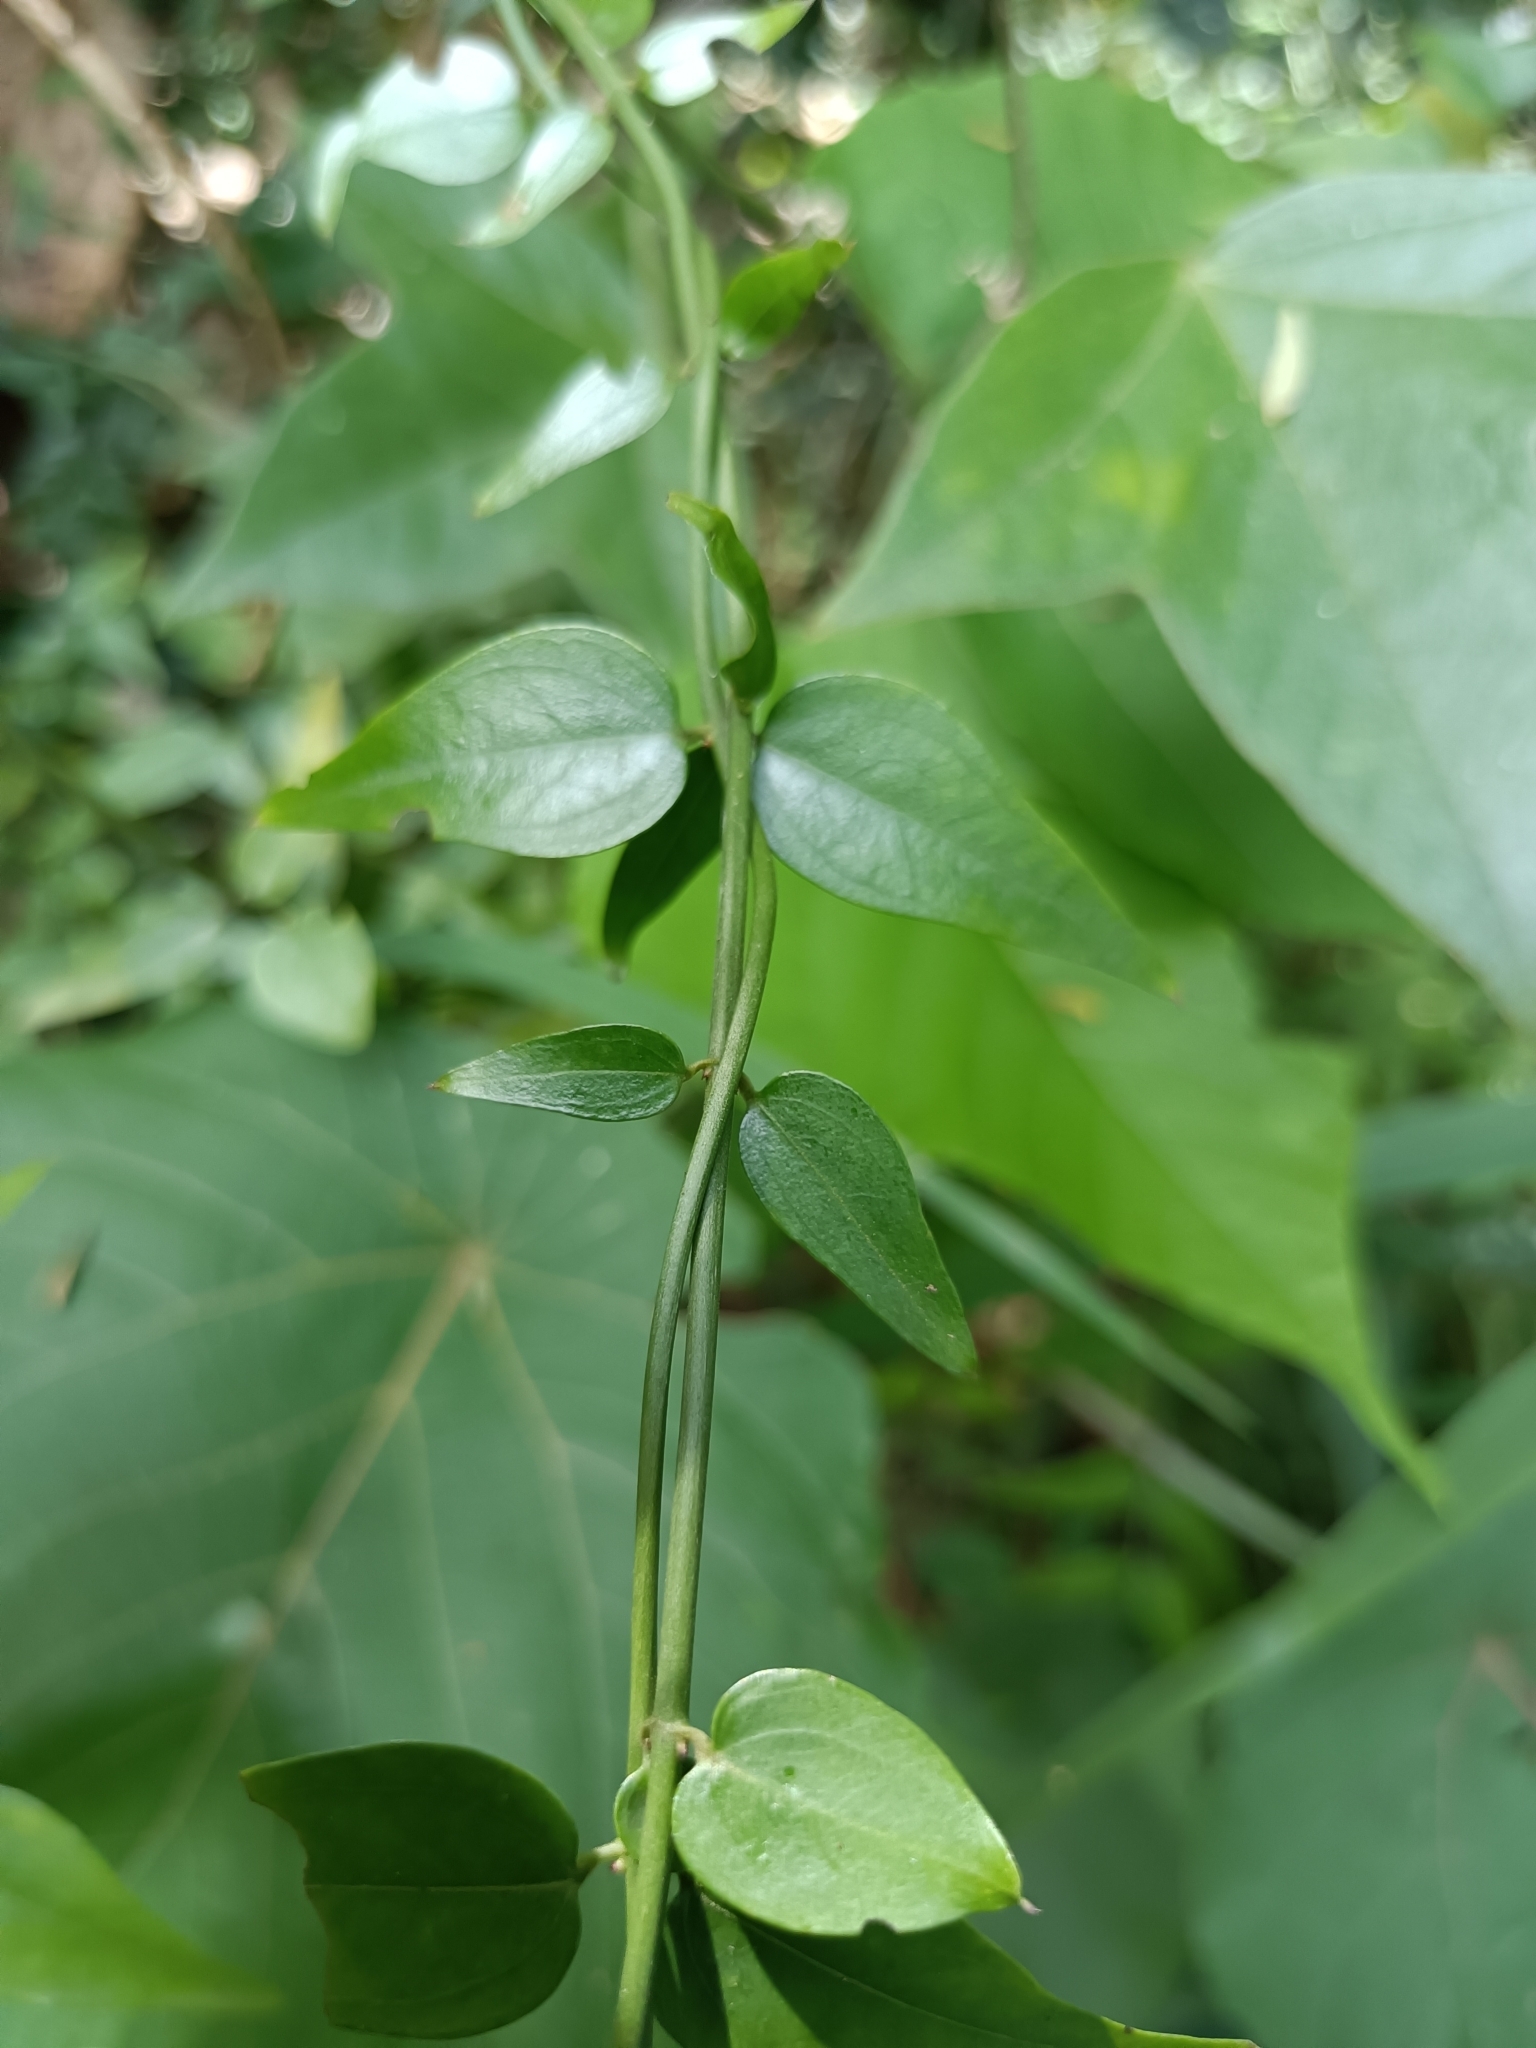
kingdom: Plantae
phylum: Tracheophyta
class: Magnoliopsida
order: Lamiales
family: Oleaceae
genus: Jasminum
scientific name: Jasminum nervosum
